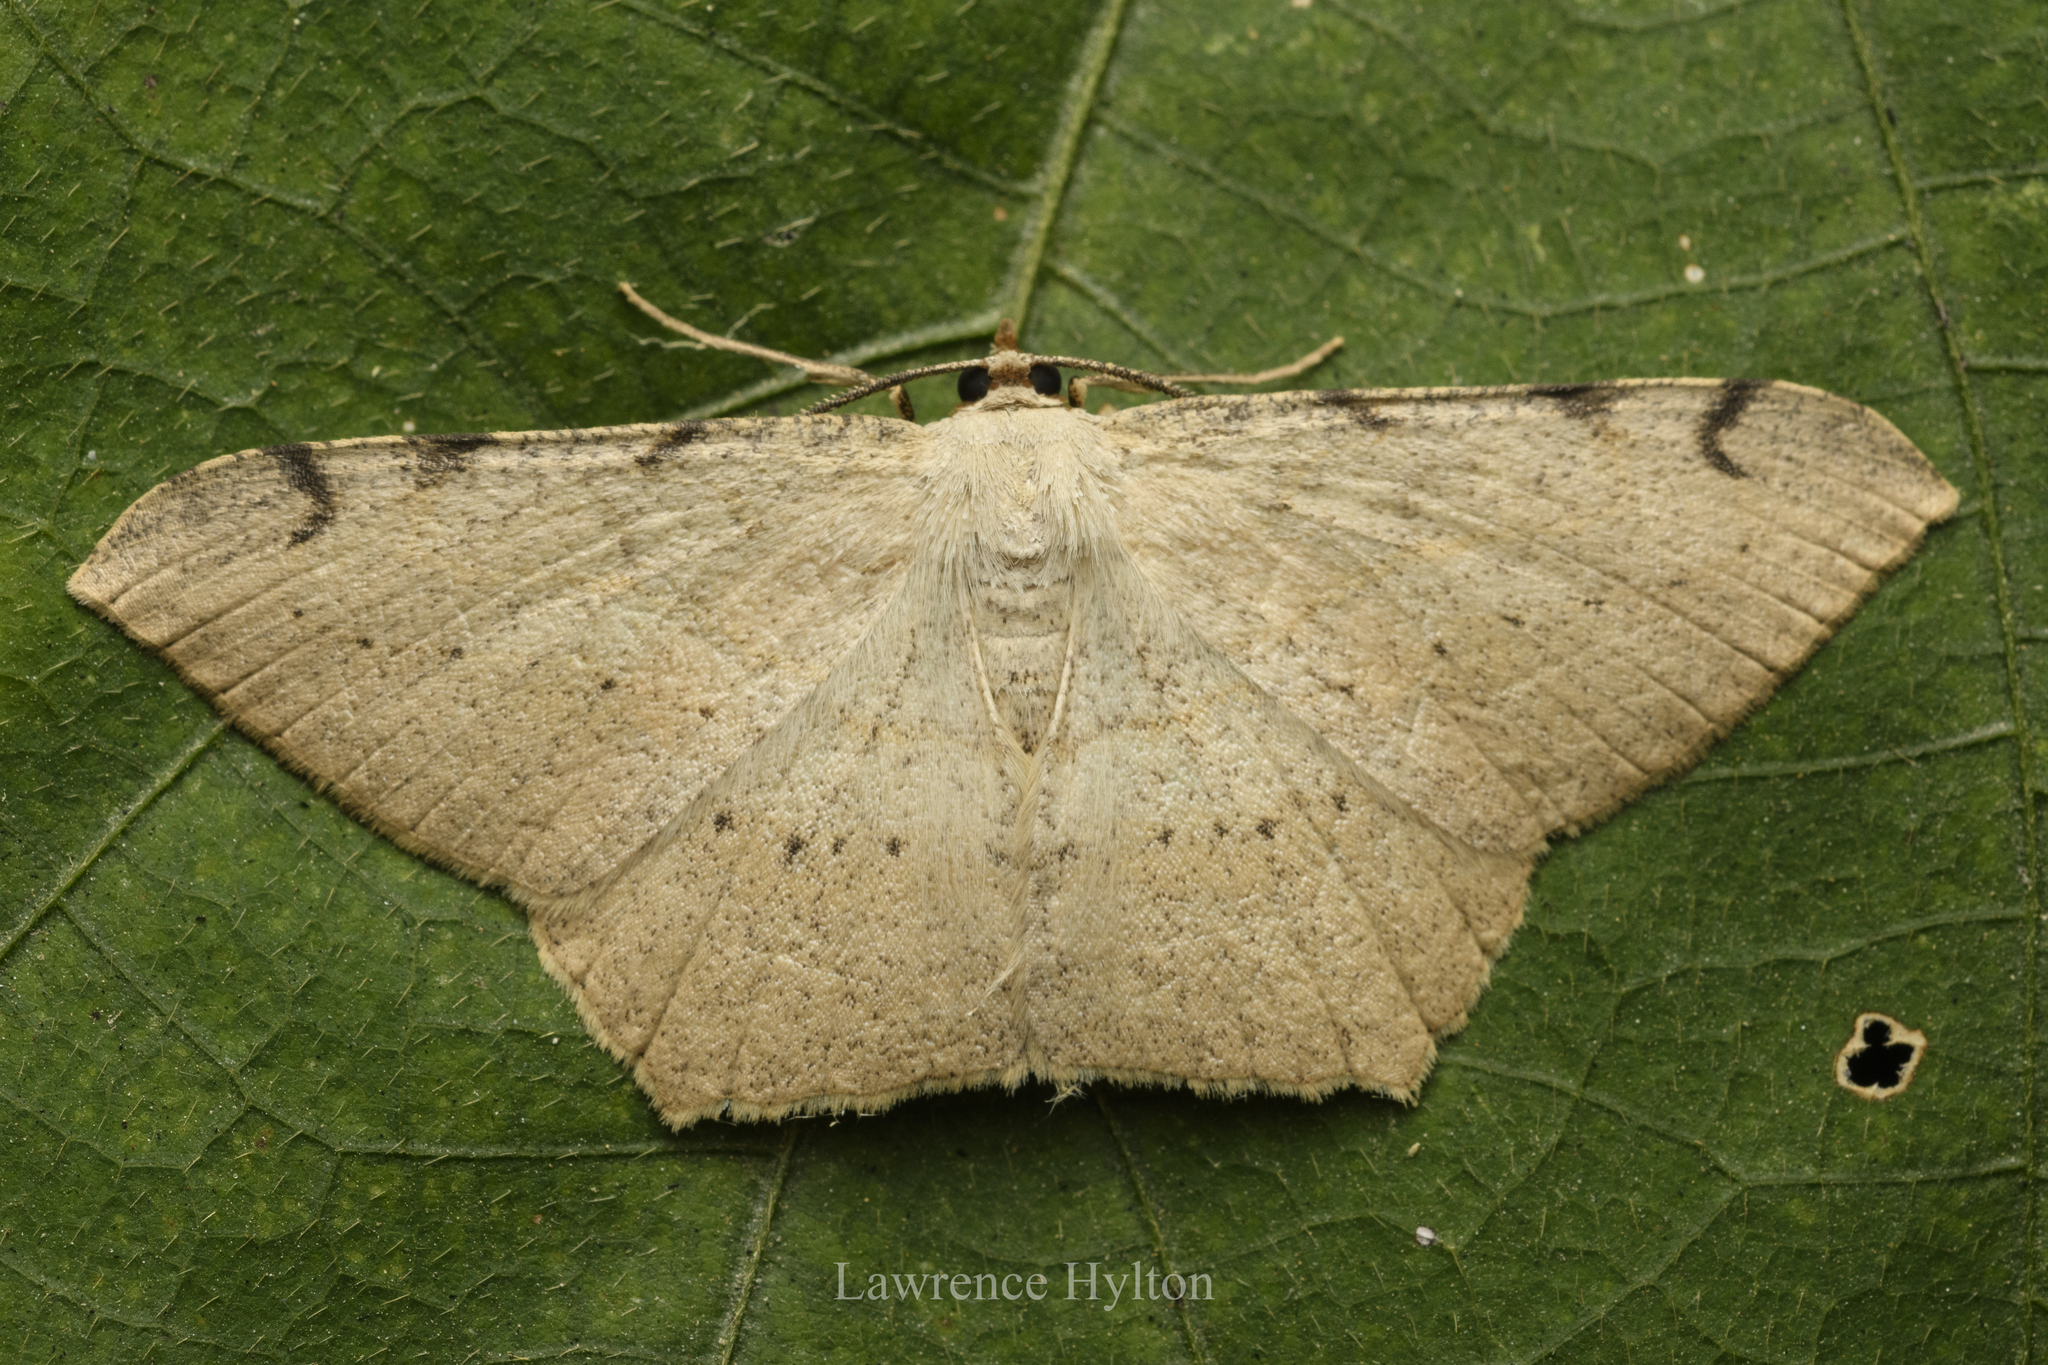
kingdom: Animalia
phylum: Arthropoda
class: Insecta
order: Lepidoptera
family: Geometridae
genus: Macaria
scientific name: Macaria abydata
